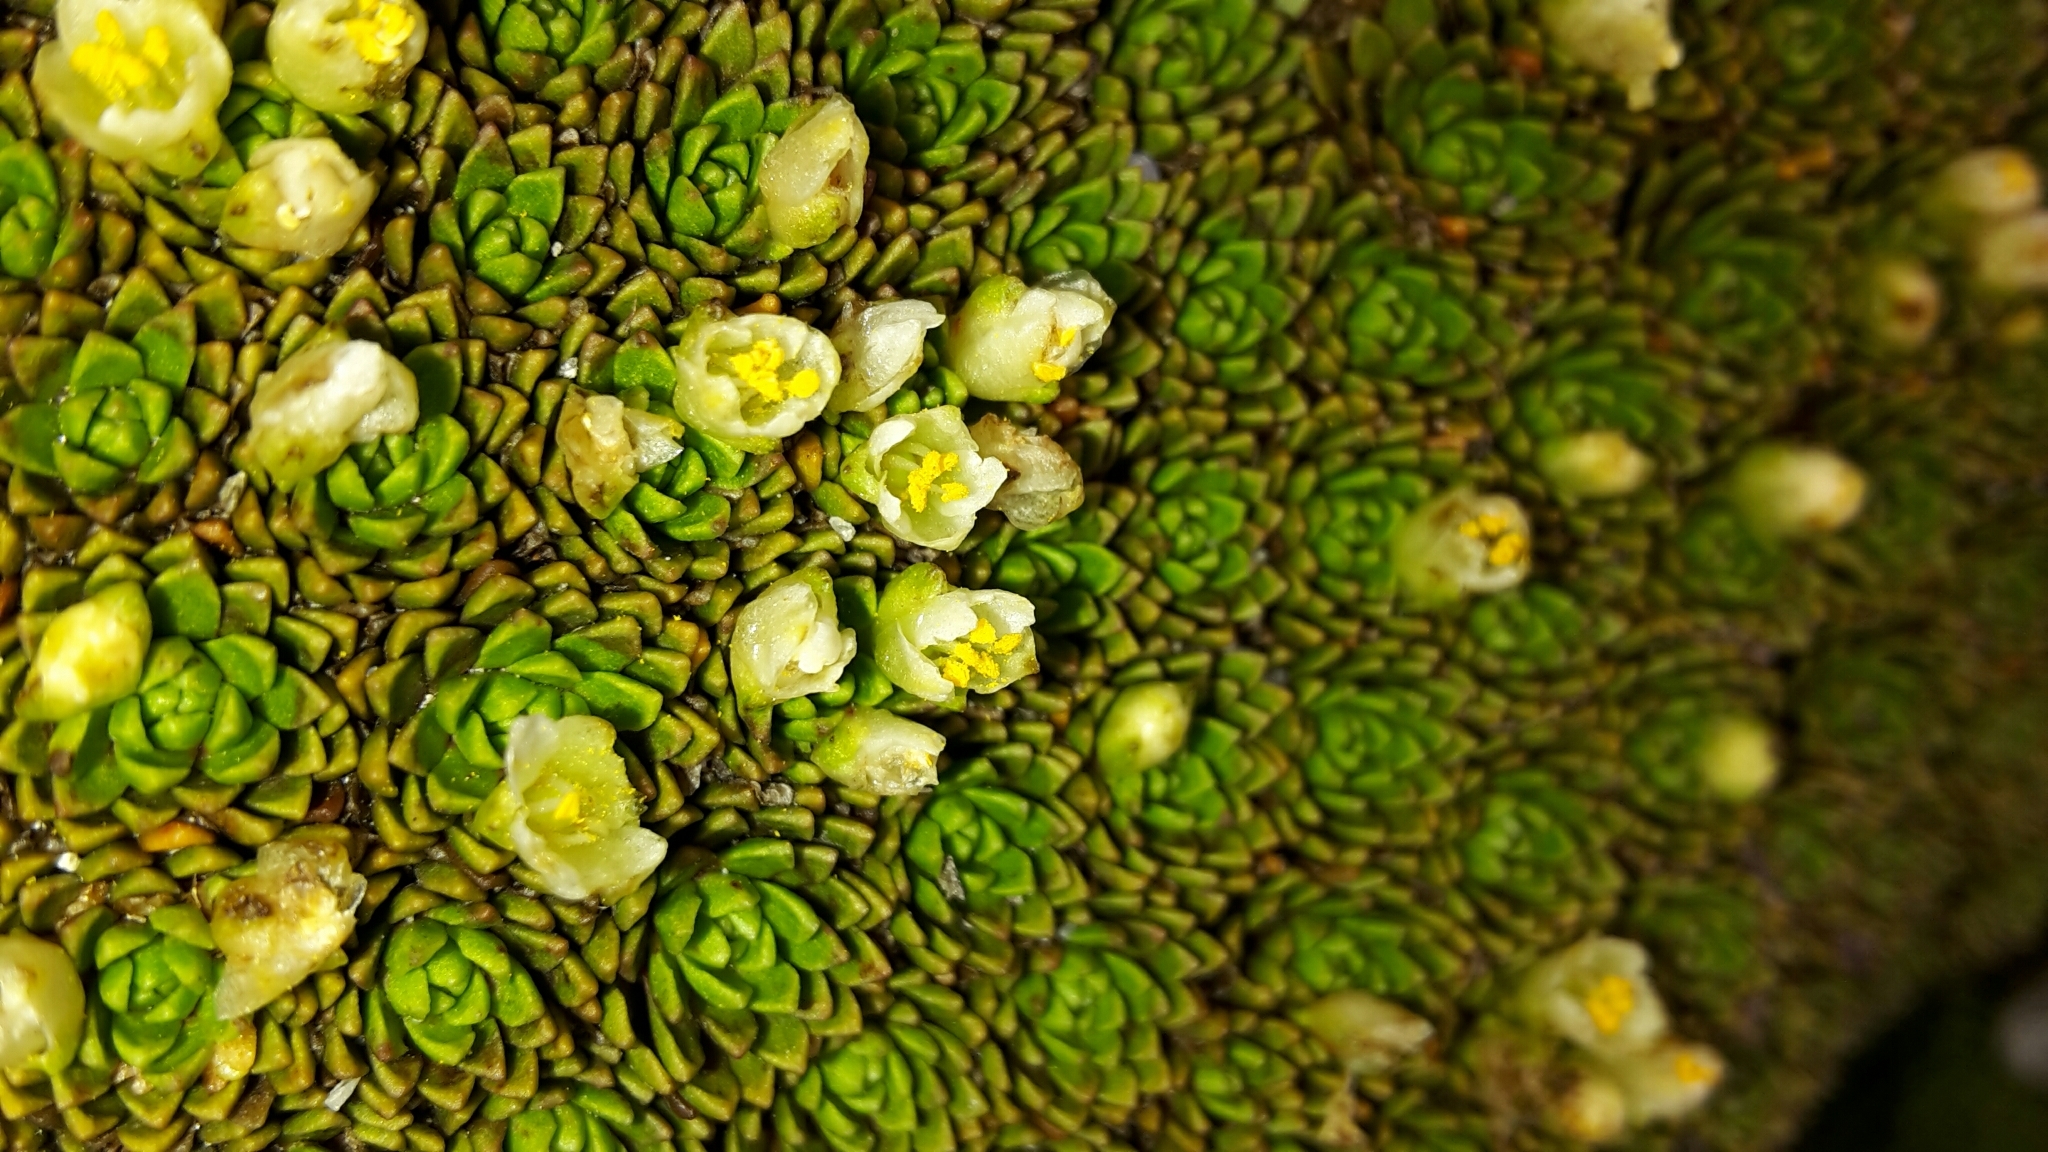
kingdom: Plantae
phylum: Tracheophyta
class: Magnoliopsida
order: Caryophyllales
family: Montiaceae
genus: Hectorella
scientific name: Hectorella caespitosa
